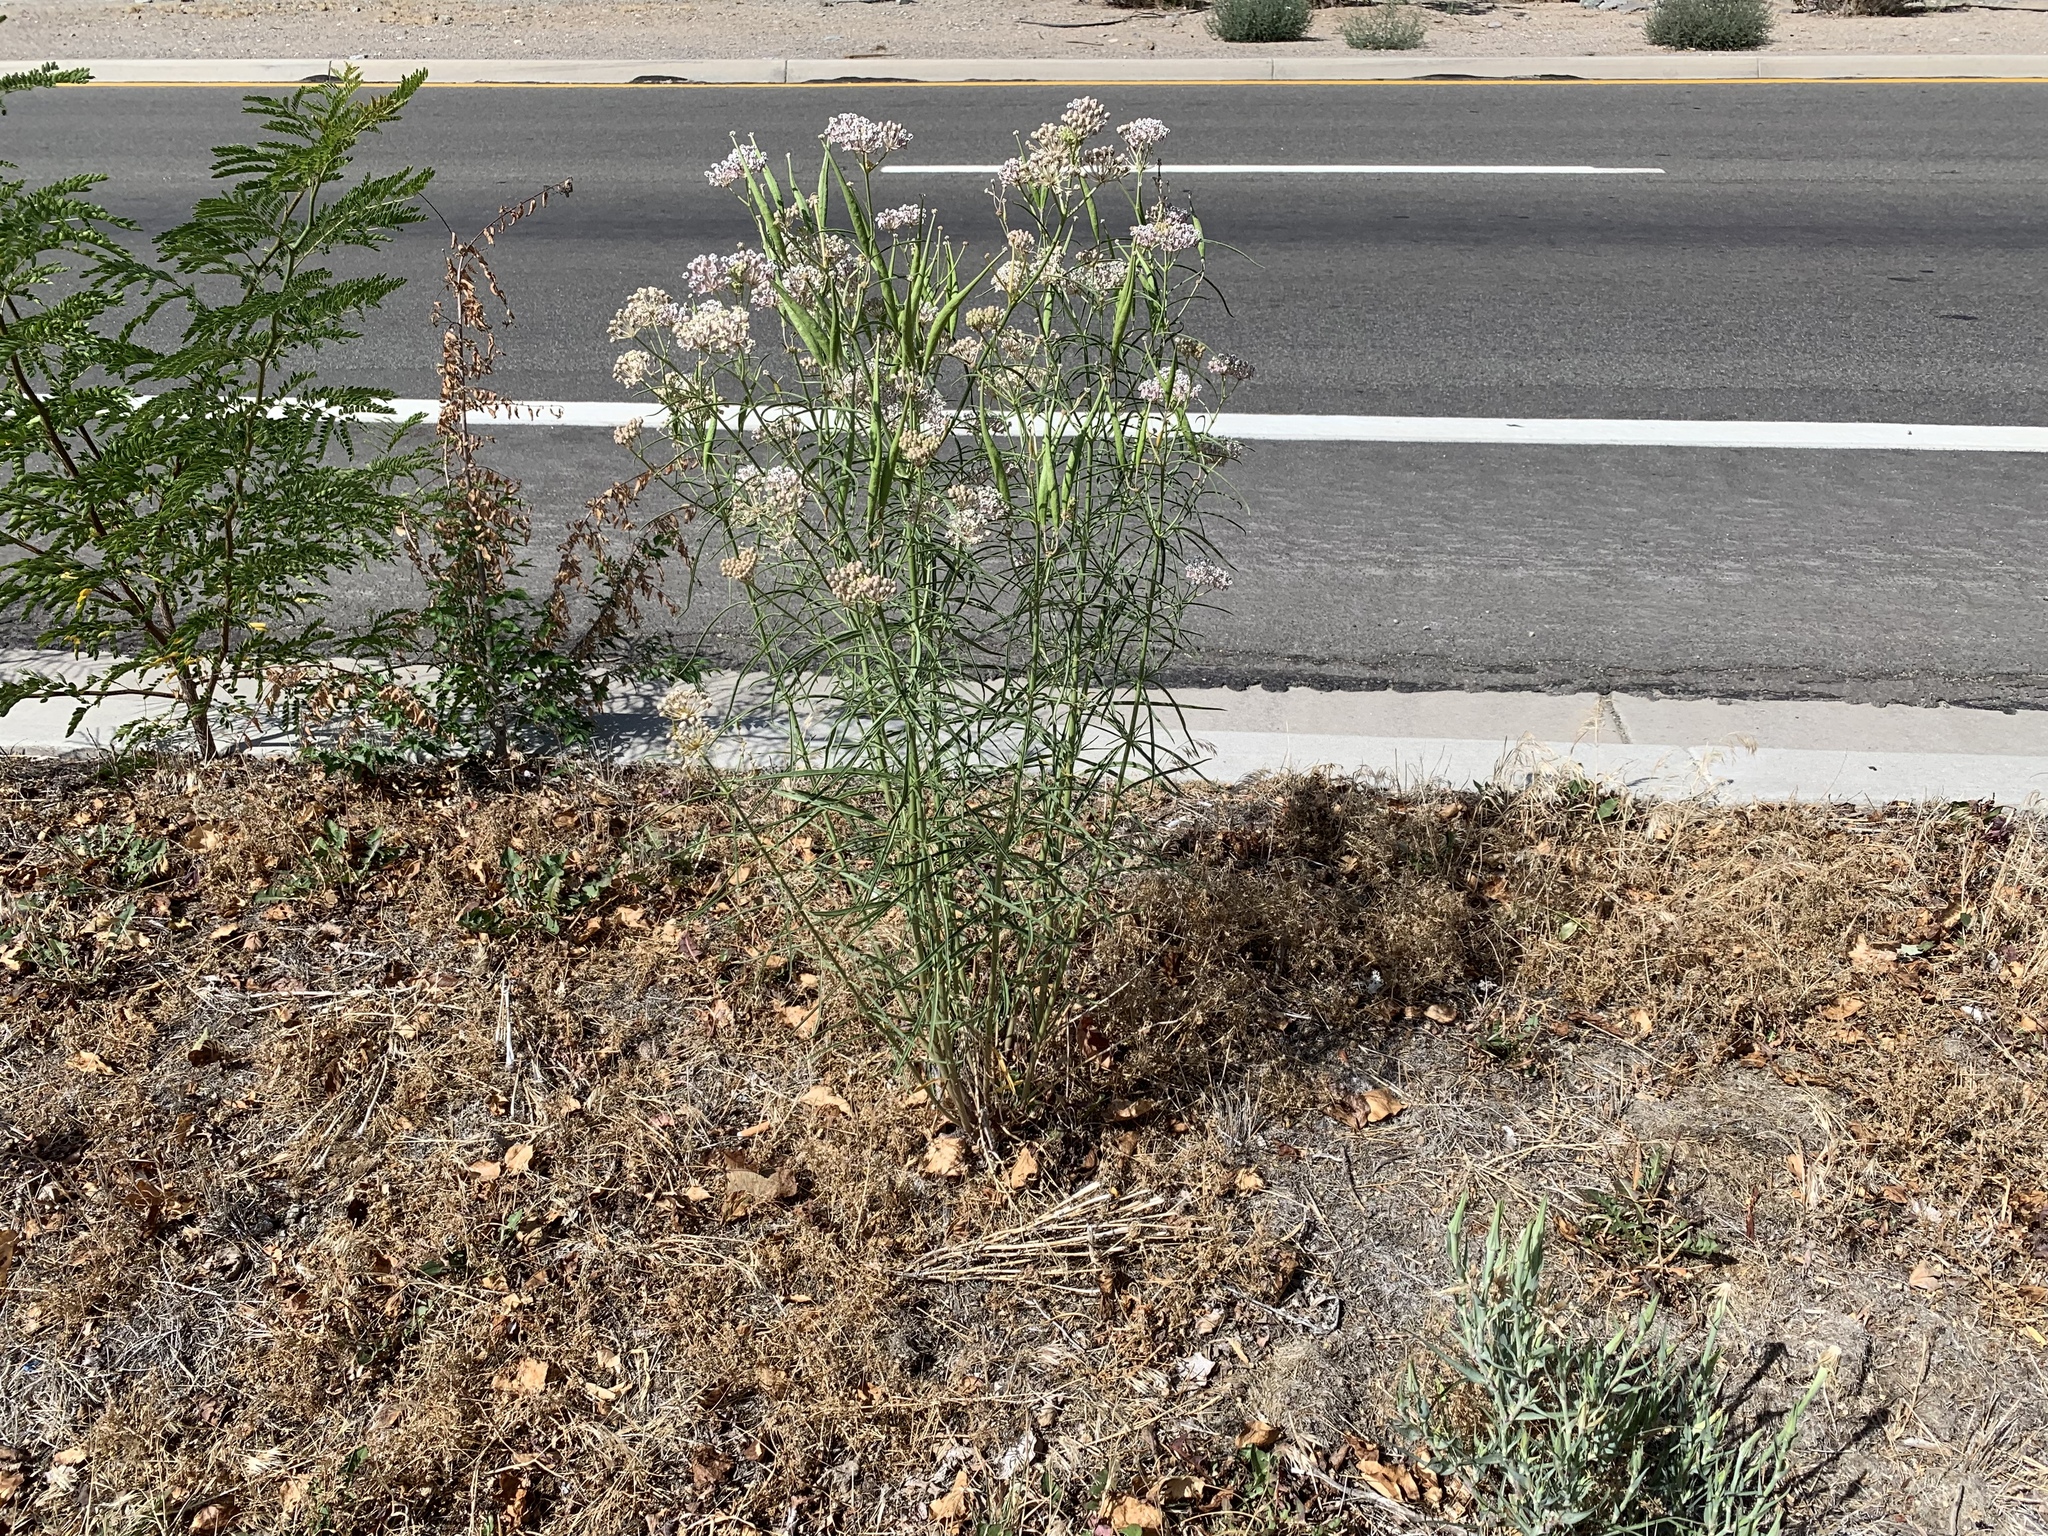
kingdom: Plantae
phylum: Tracheophyta
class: Magnoliopsida
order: Gentianales
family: Apocynaceae
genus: Asclepias
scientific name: Asclepias fascicularis
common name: Mexican milkweed
